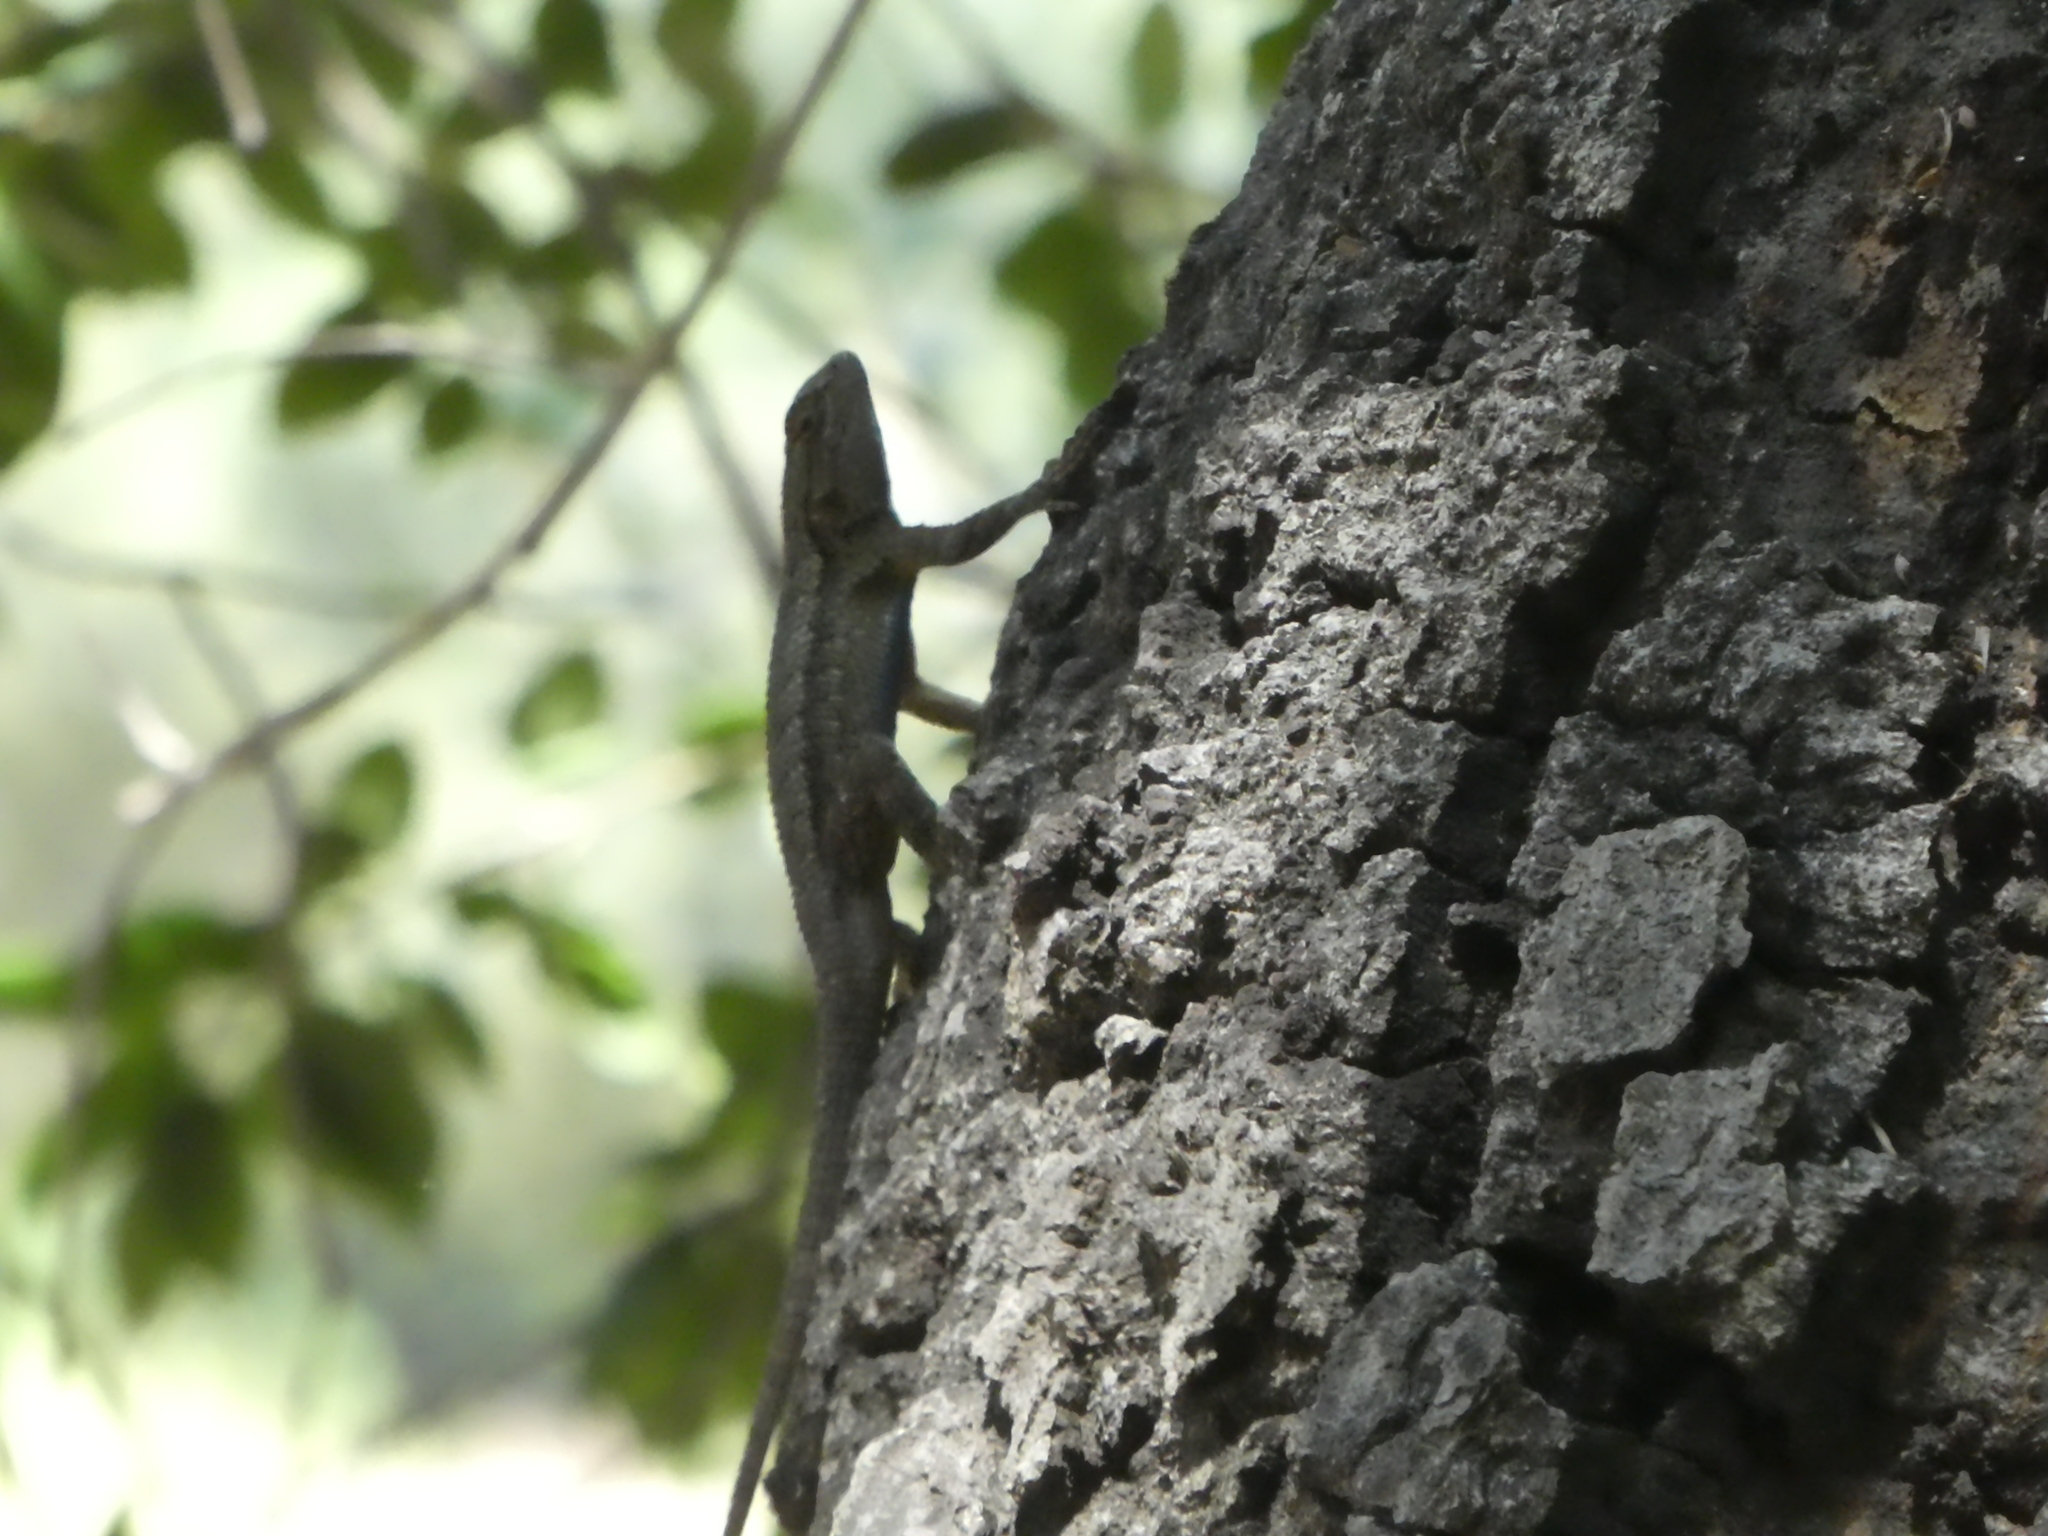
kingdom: Animalia
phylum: Chordata
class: Squamata
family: Phrynosomatidae
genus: Sceloporus
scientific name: Sceloporus occidentalis
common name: Western fence lizard
